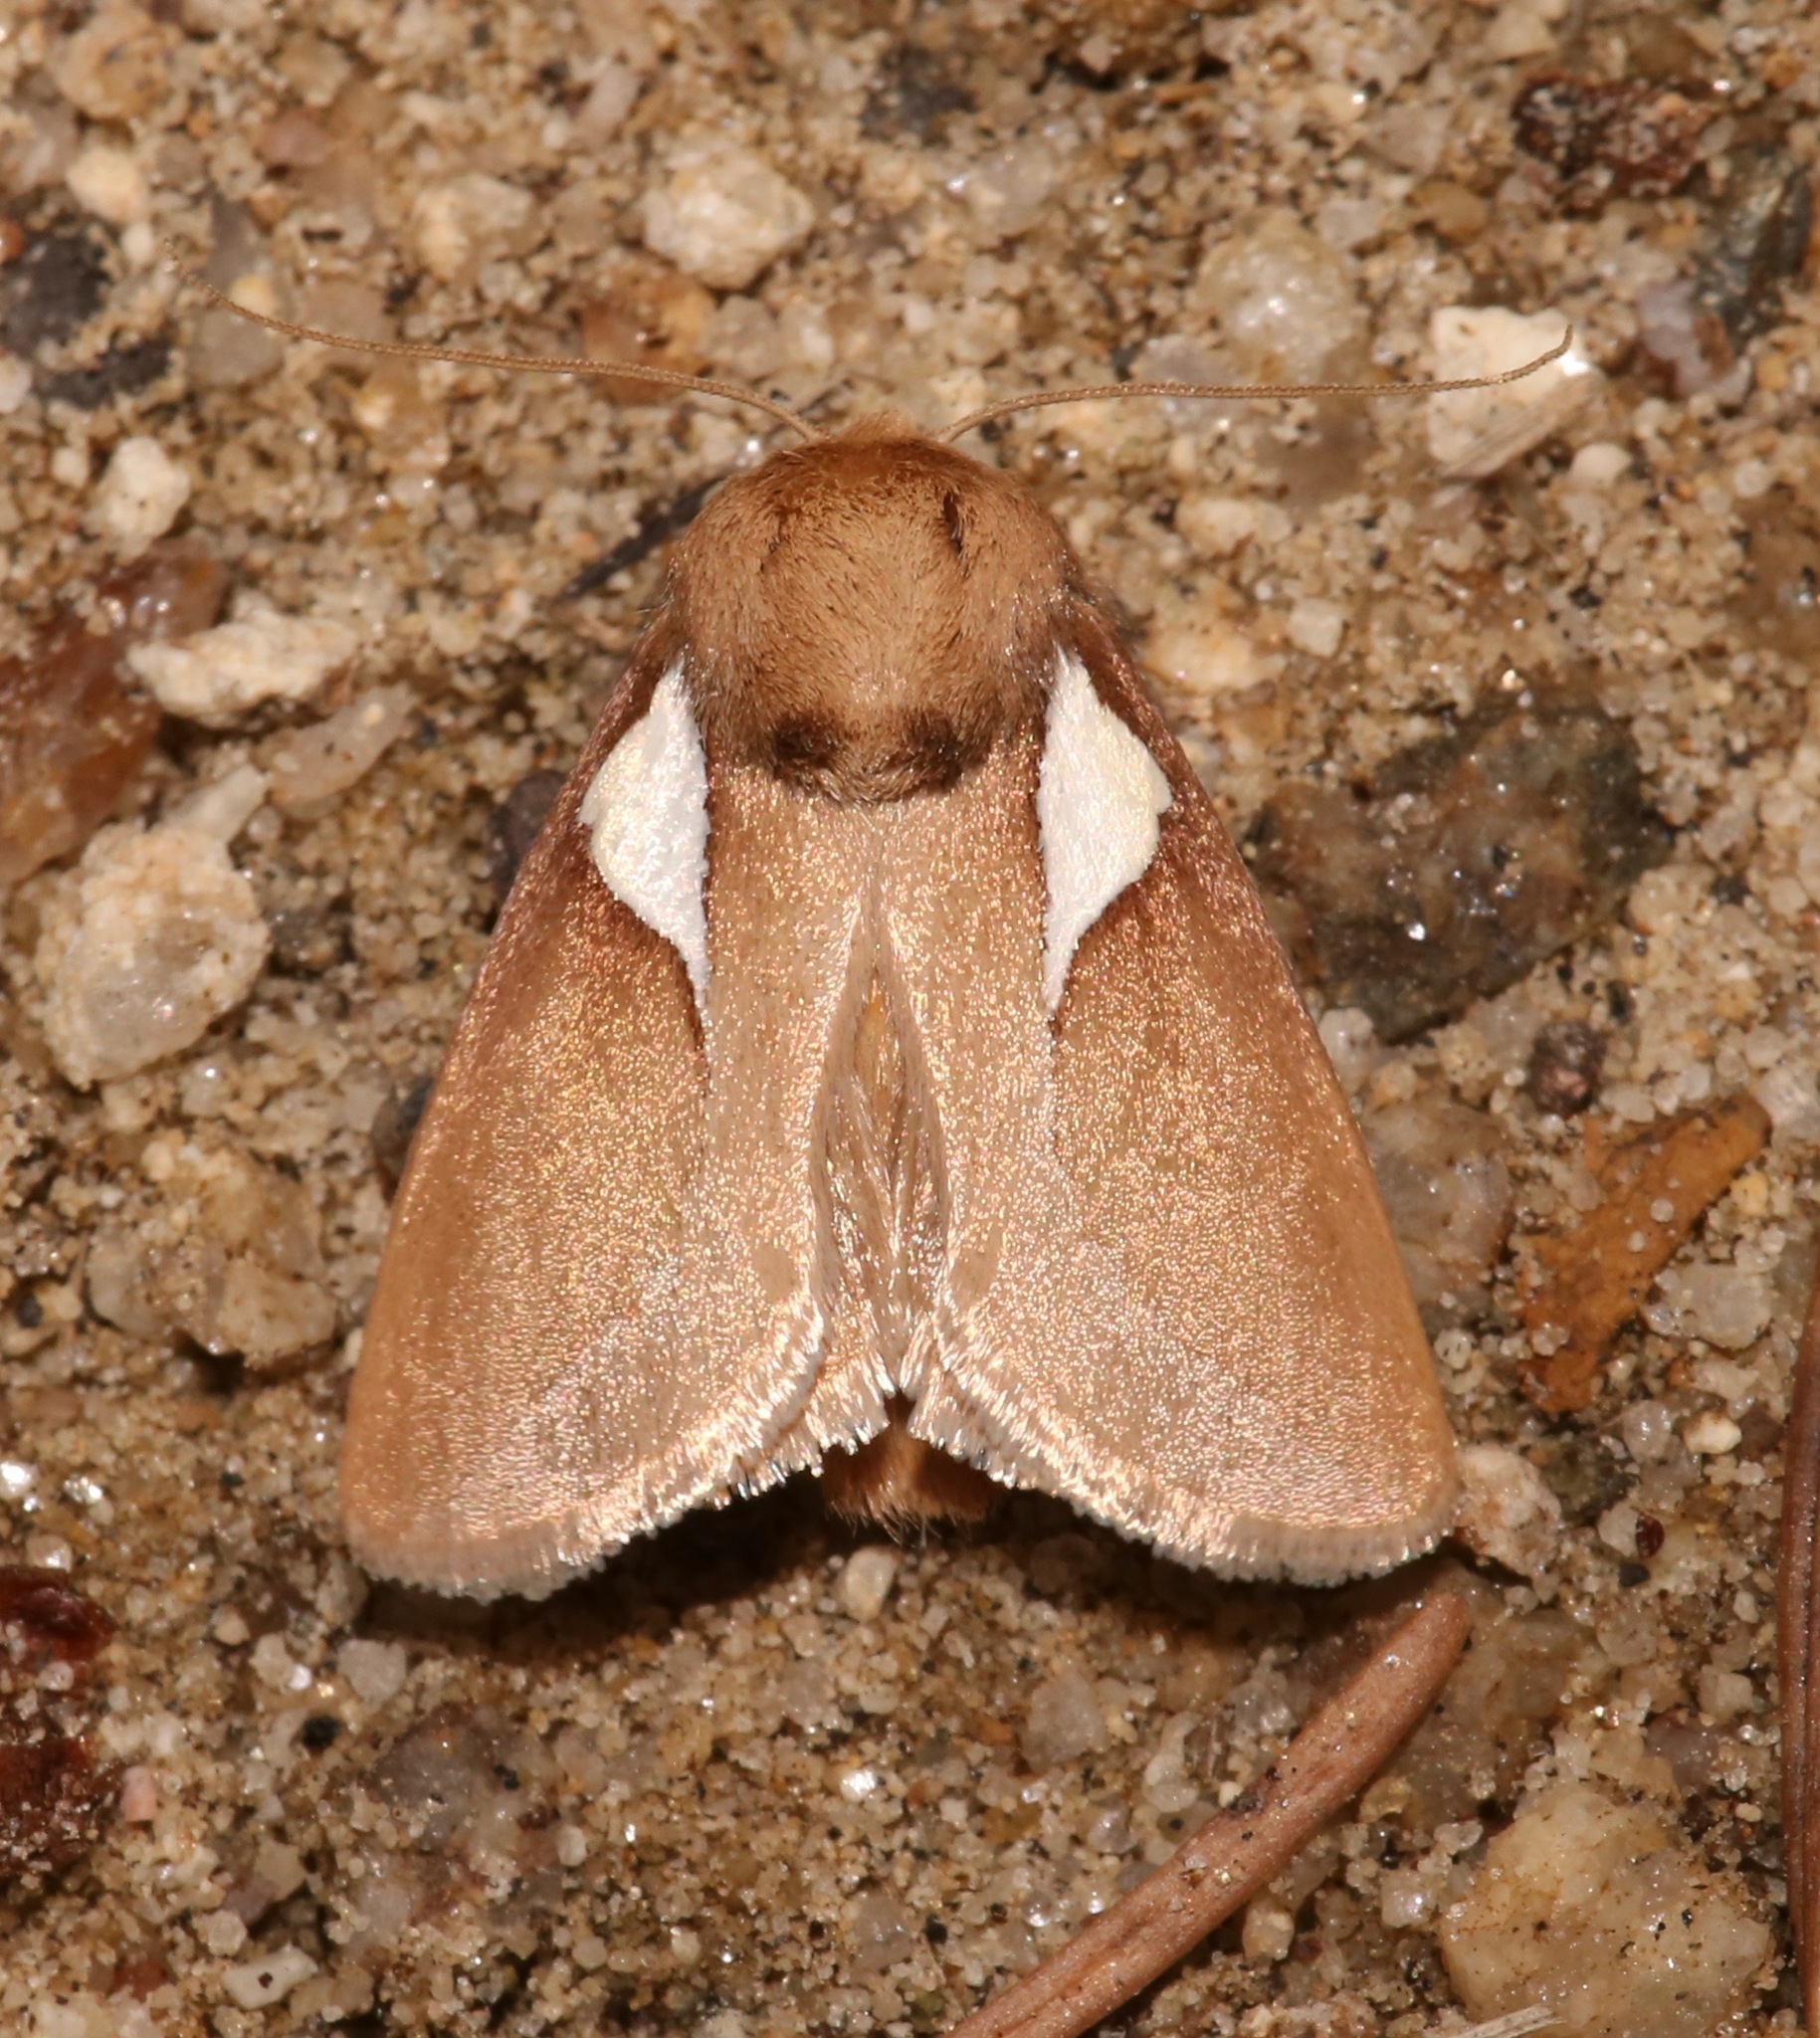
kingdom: Animalia
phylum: Arthropoda
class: Insecta
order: Lepidoptera
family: Limacodidae
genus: Prolimacodes
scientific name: Prolimacodes trigona
